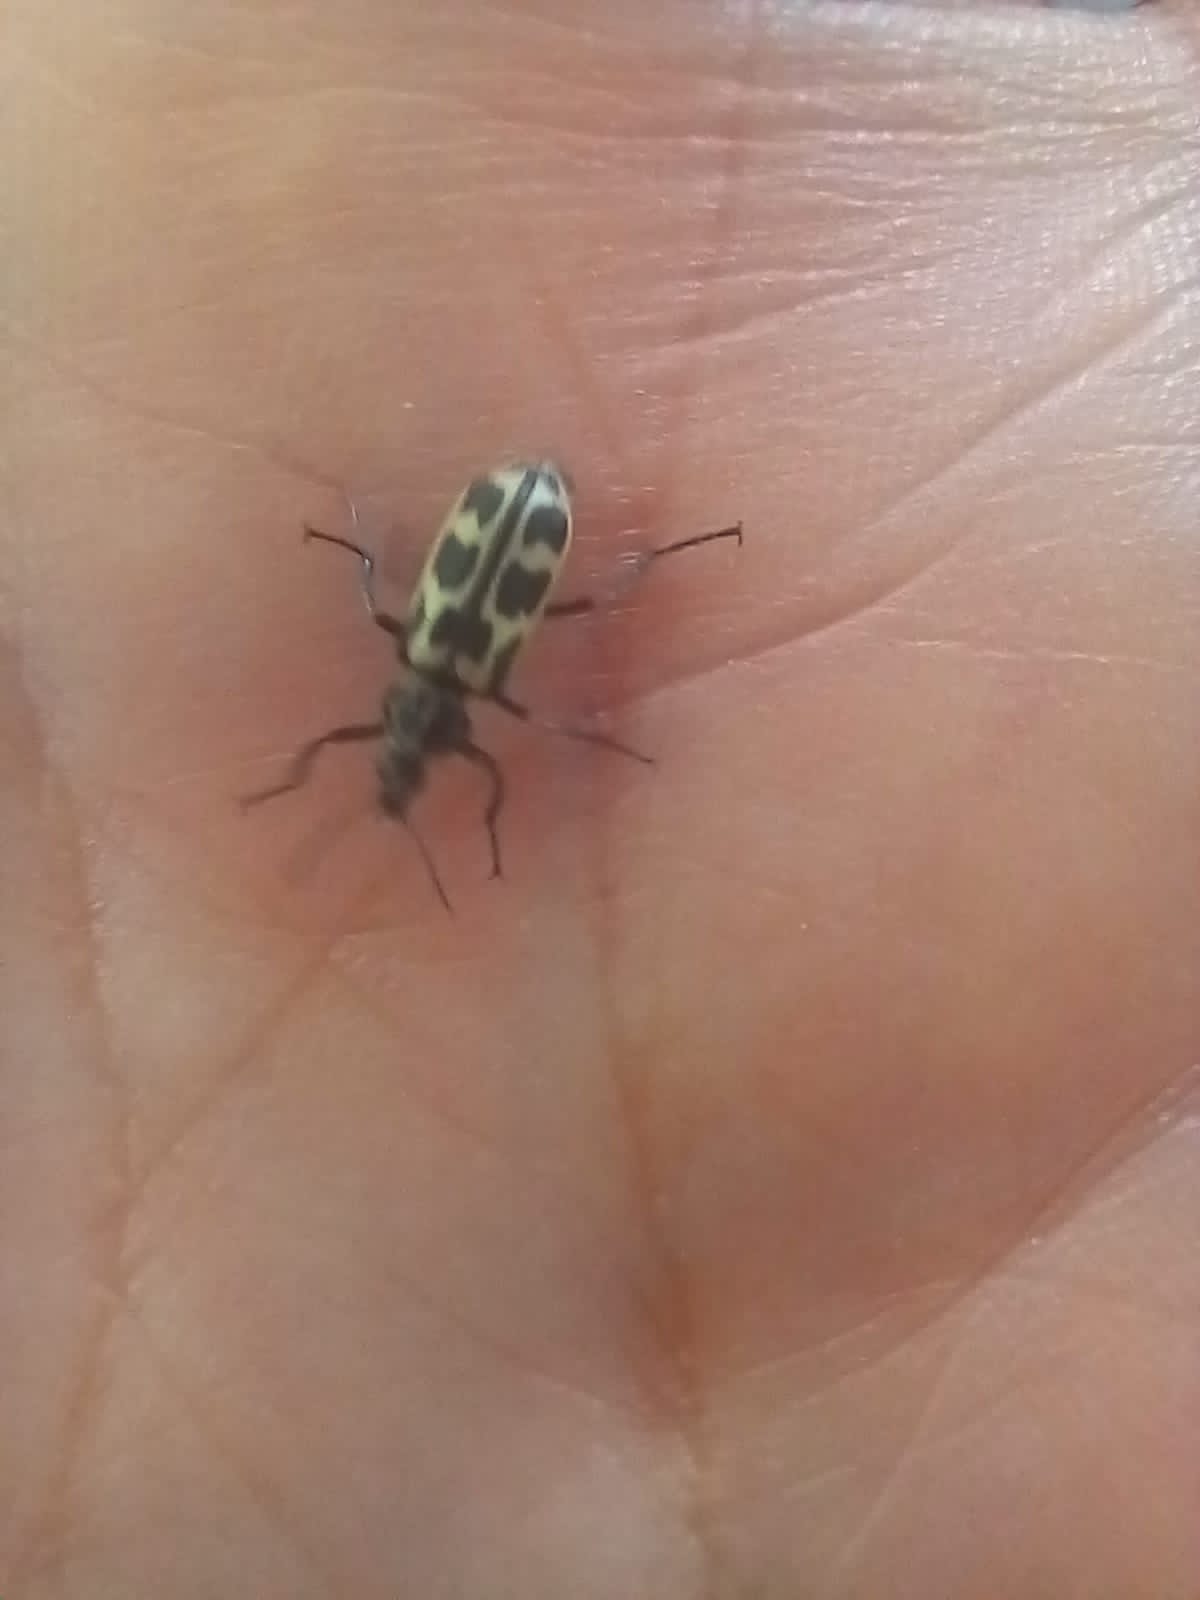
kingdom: Animalia
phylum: Arthropoda
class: Insecta
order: Coleoptera
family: Melyridae
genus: Astylus
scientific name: Astylus atromaculatus
